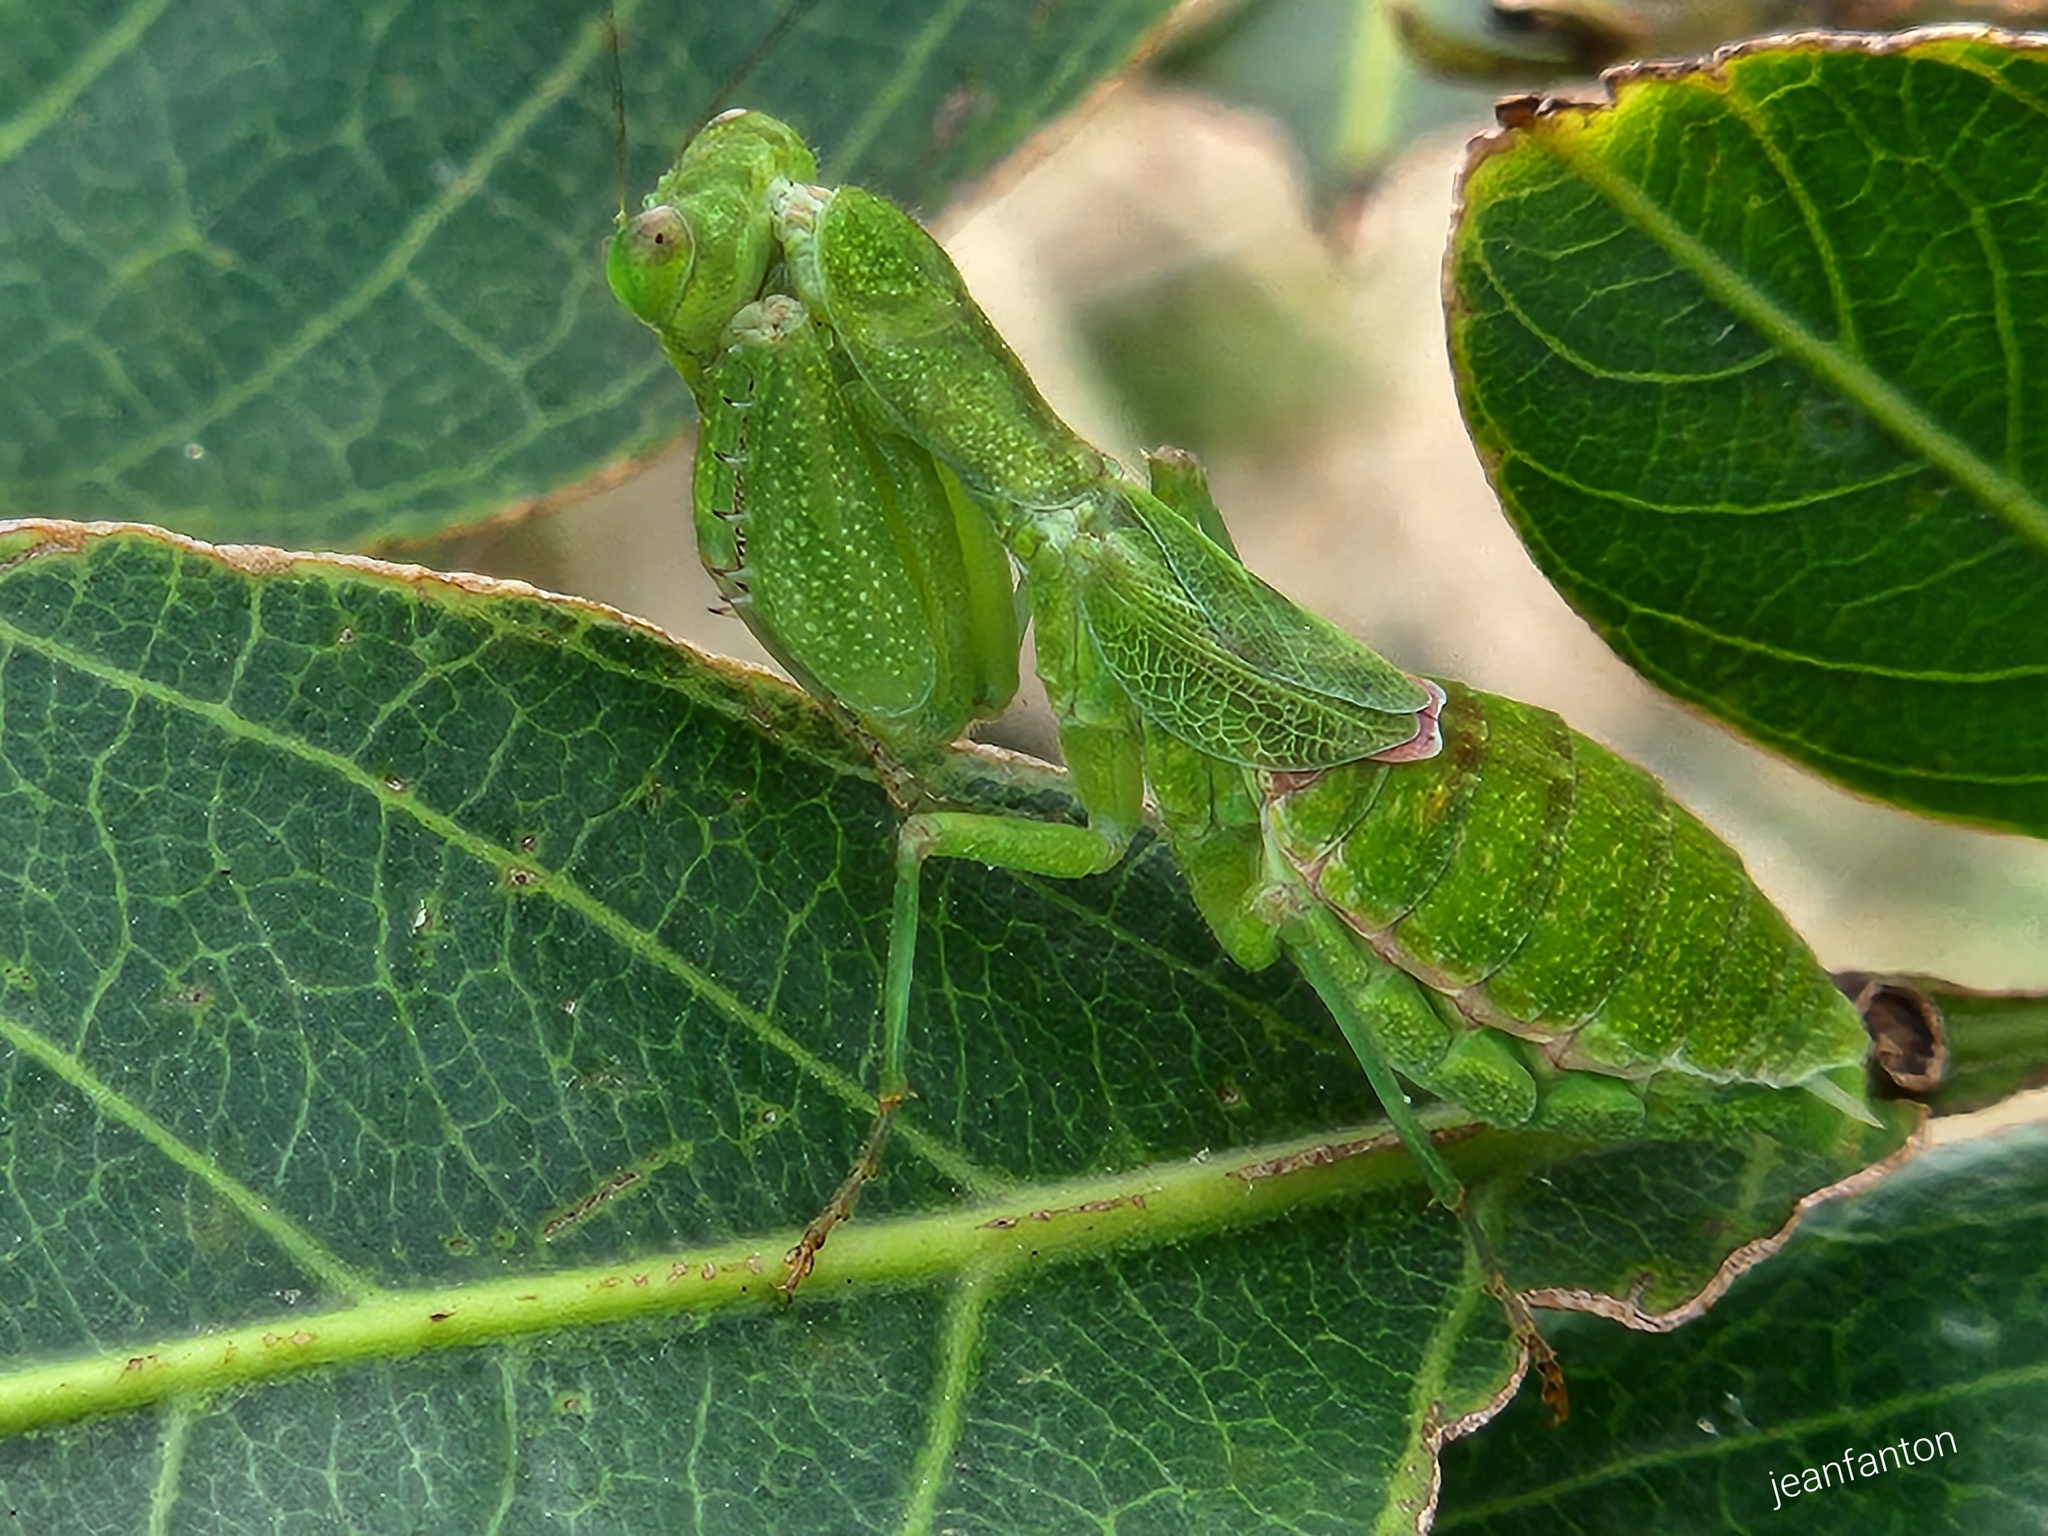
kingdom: Animalia
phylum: Arthropoda
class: Insecta
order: Mantodea
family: Acanthopidae
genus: Acontista
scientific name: Acontista
